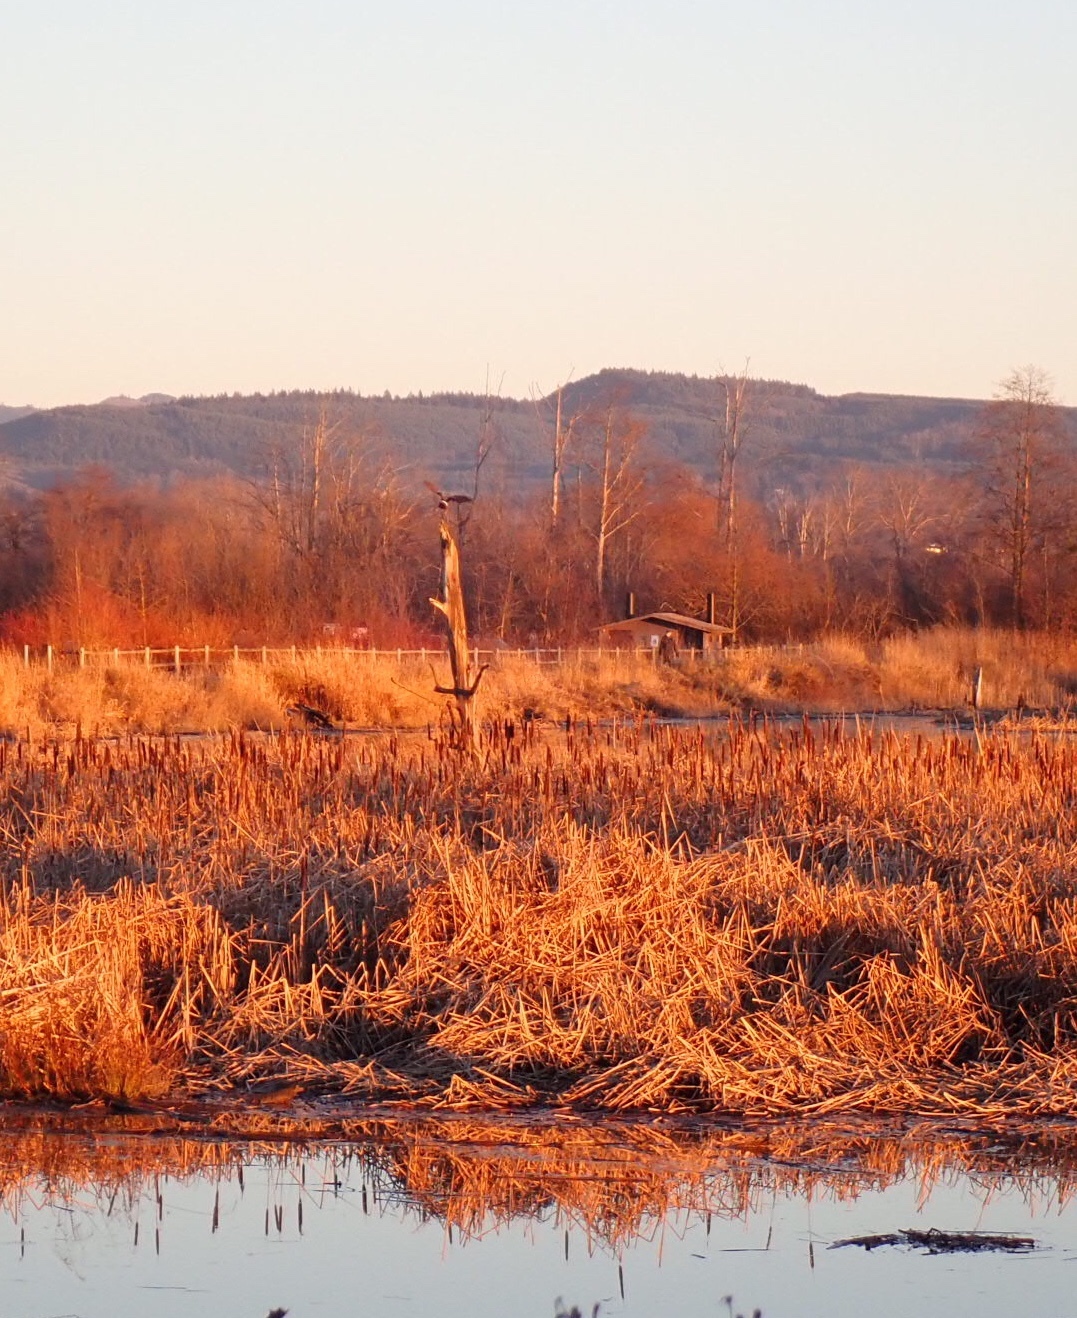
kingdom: Animalia
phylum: Chordata
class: Aves
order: Accipitriformes
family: Accipitridae
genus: Circus
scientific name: Circus cyaneus
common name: Hen harrier
